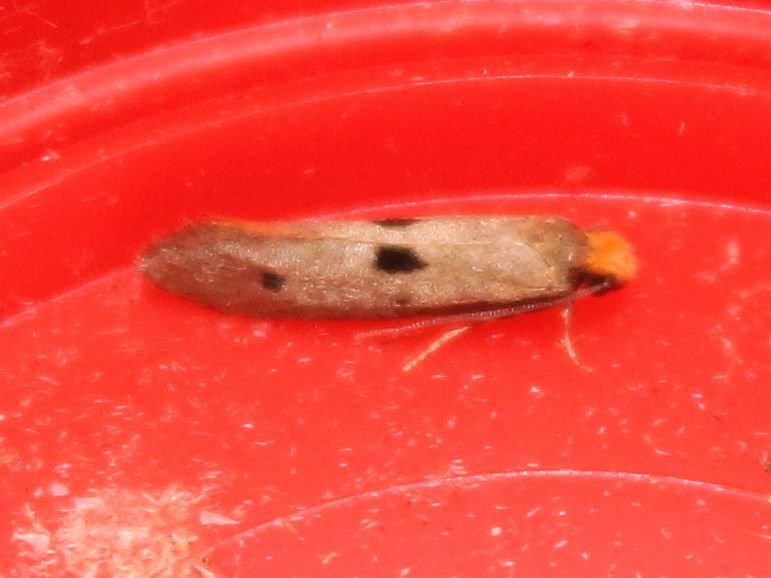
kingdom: Animalia
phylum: Arthropoda
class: Insecta
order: Lepidoptera
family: Tineidae
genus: Tinea
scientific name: Tinea trinotella
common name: Bird's-nest moth
